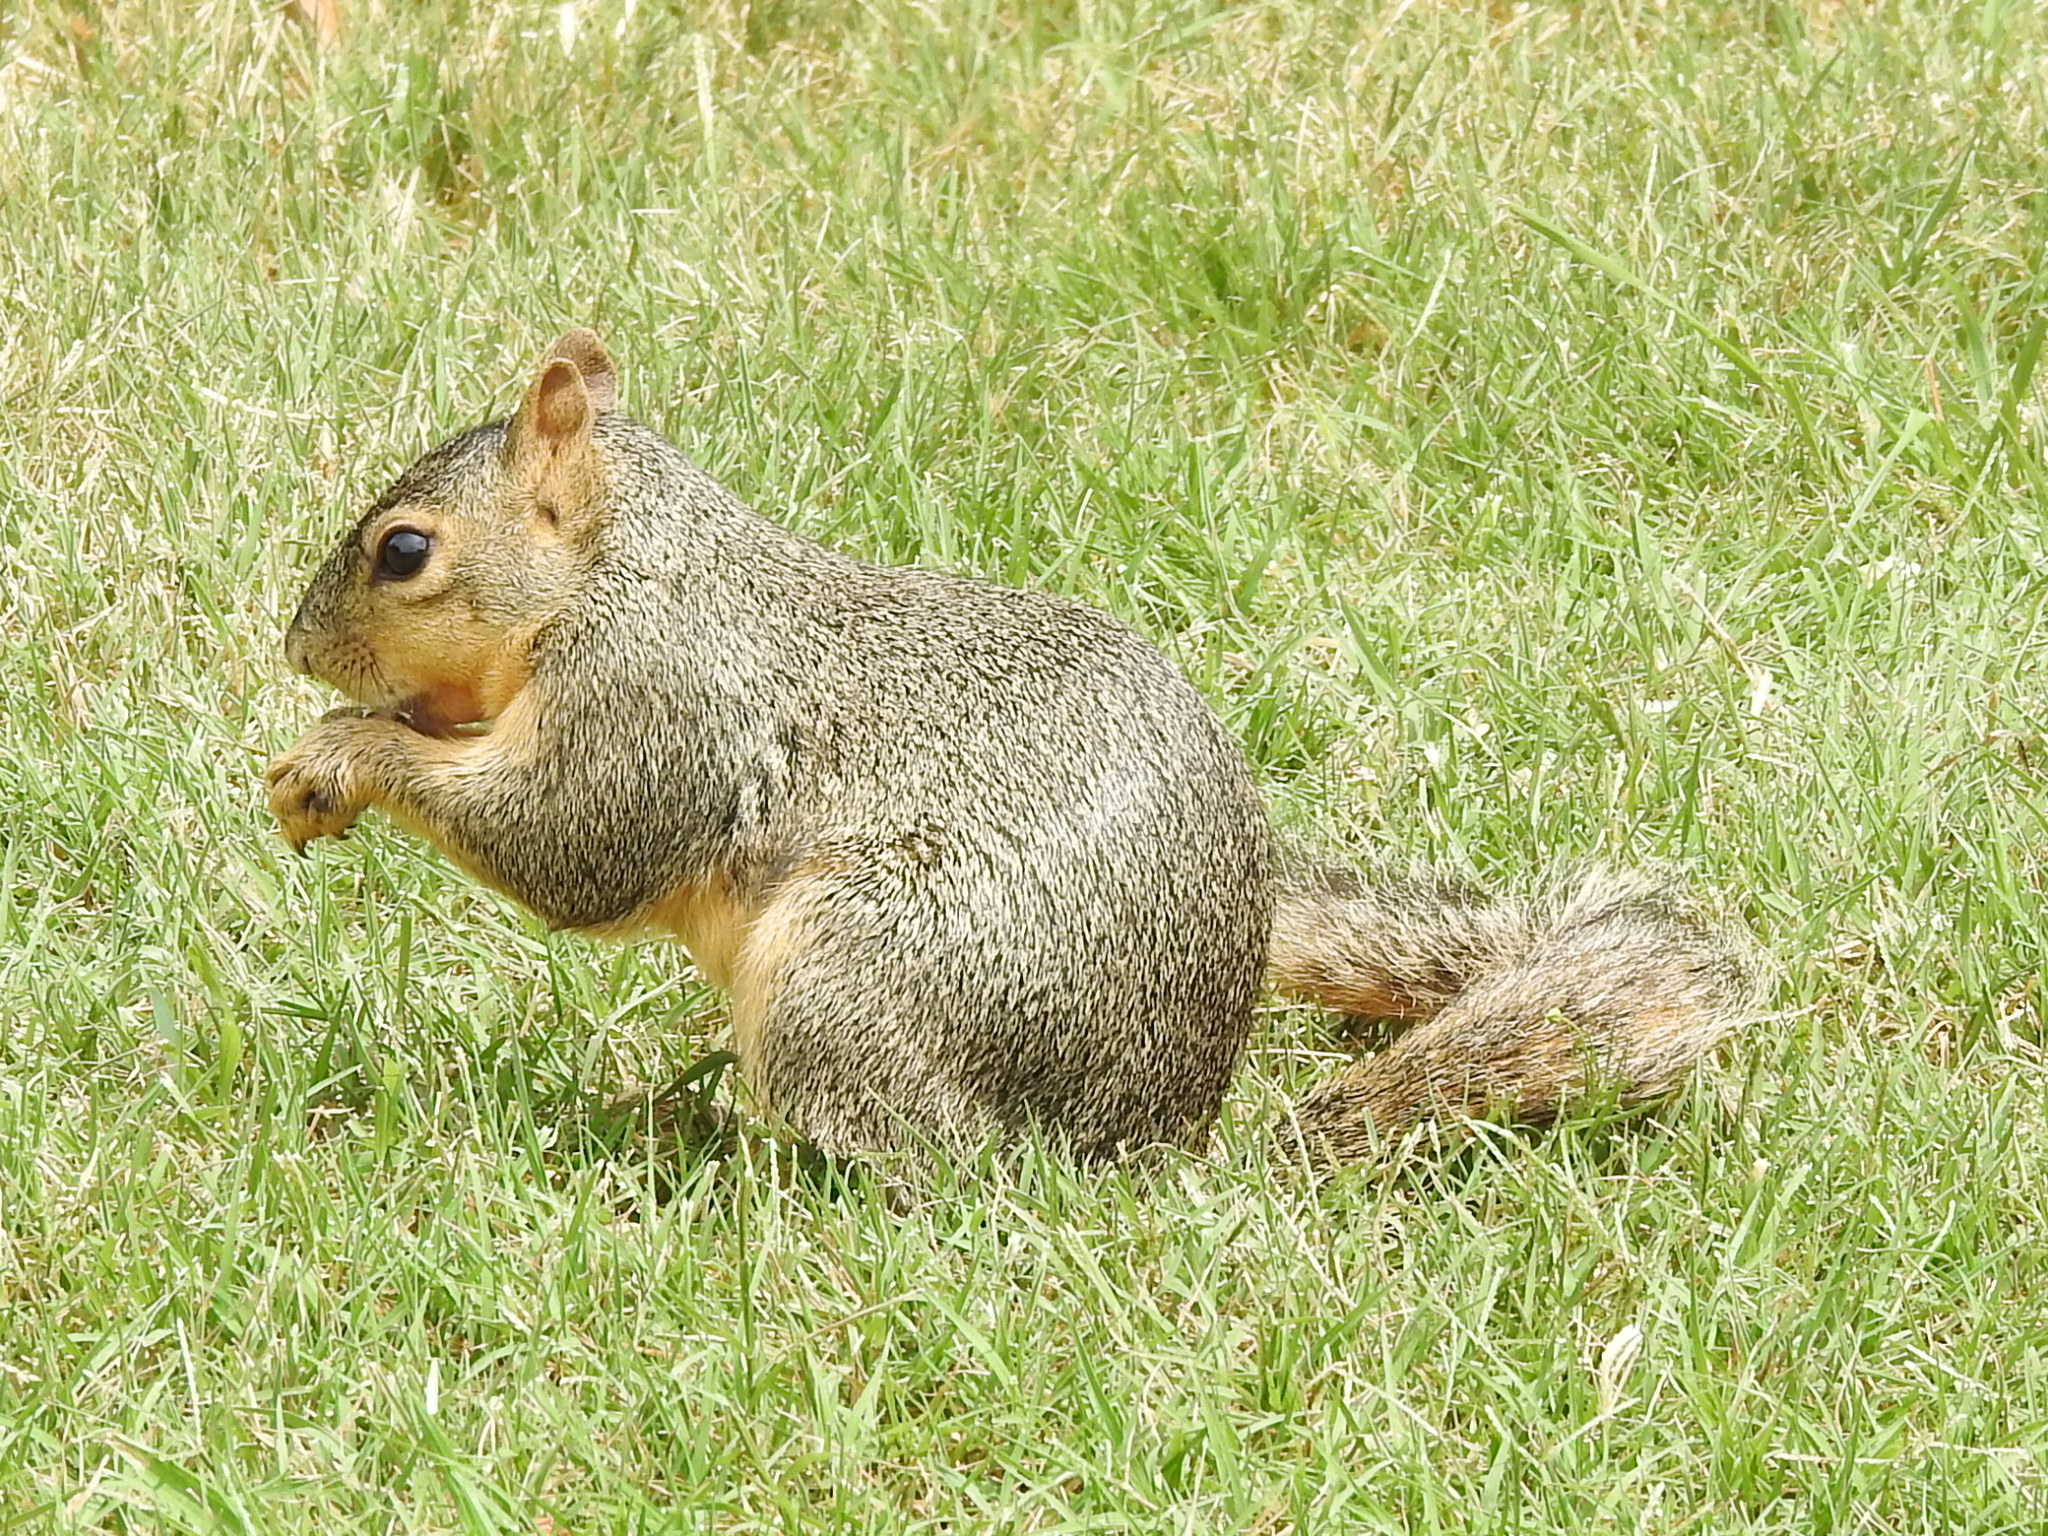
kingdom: Animalia
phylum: Chordata
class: Mammalia
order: Rodentia
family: Sciuridae
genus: Sciurus
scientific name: Sciurus niger
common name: Fox squirrel
